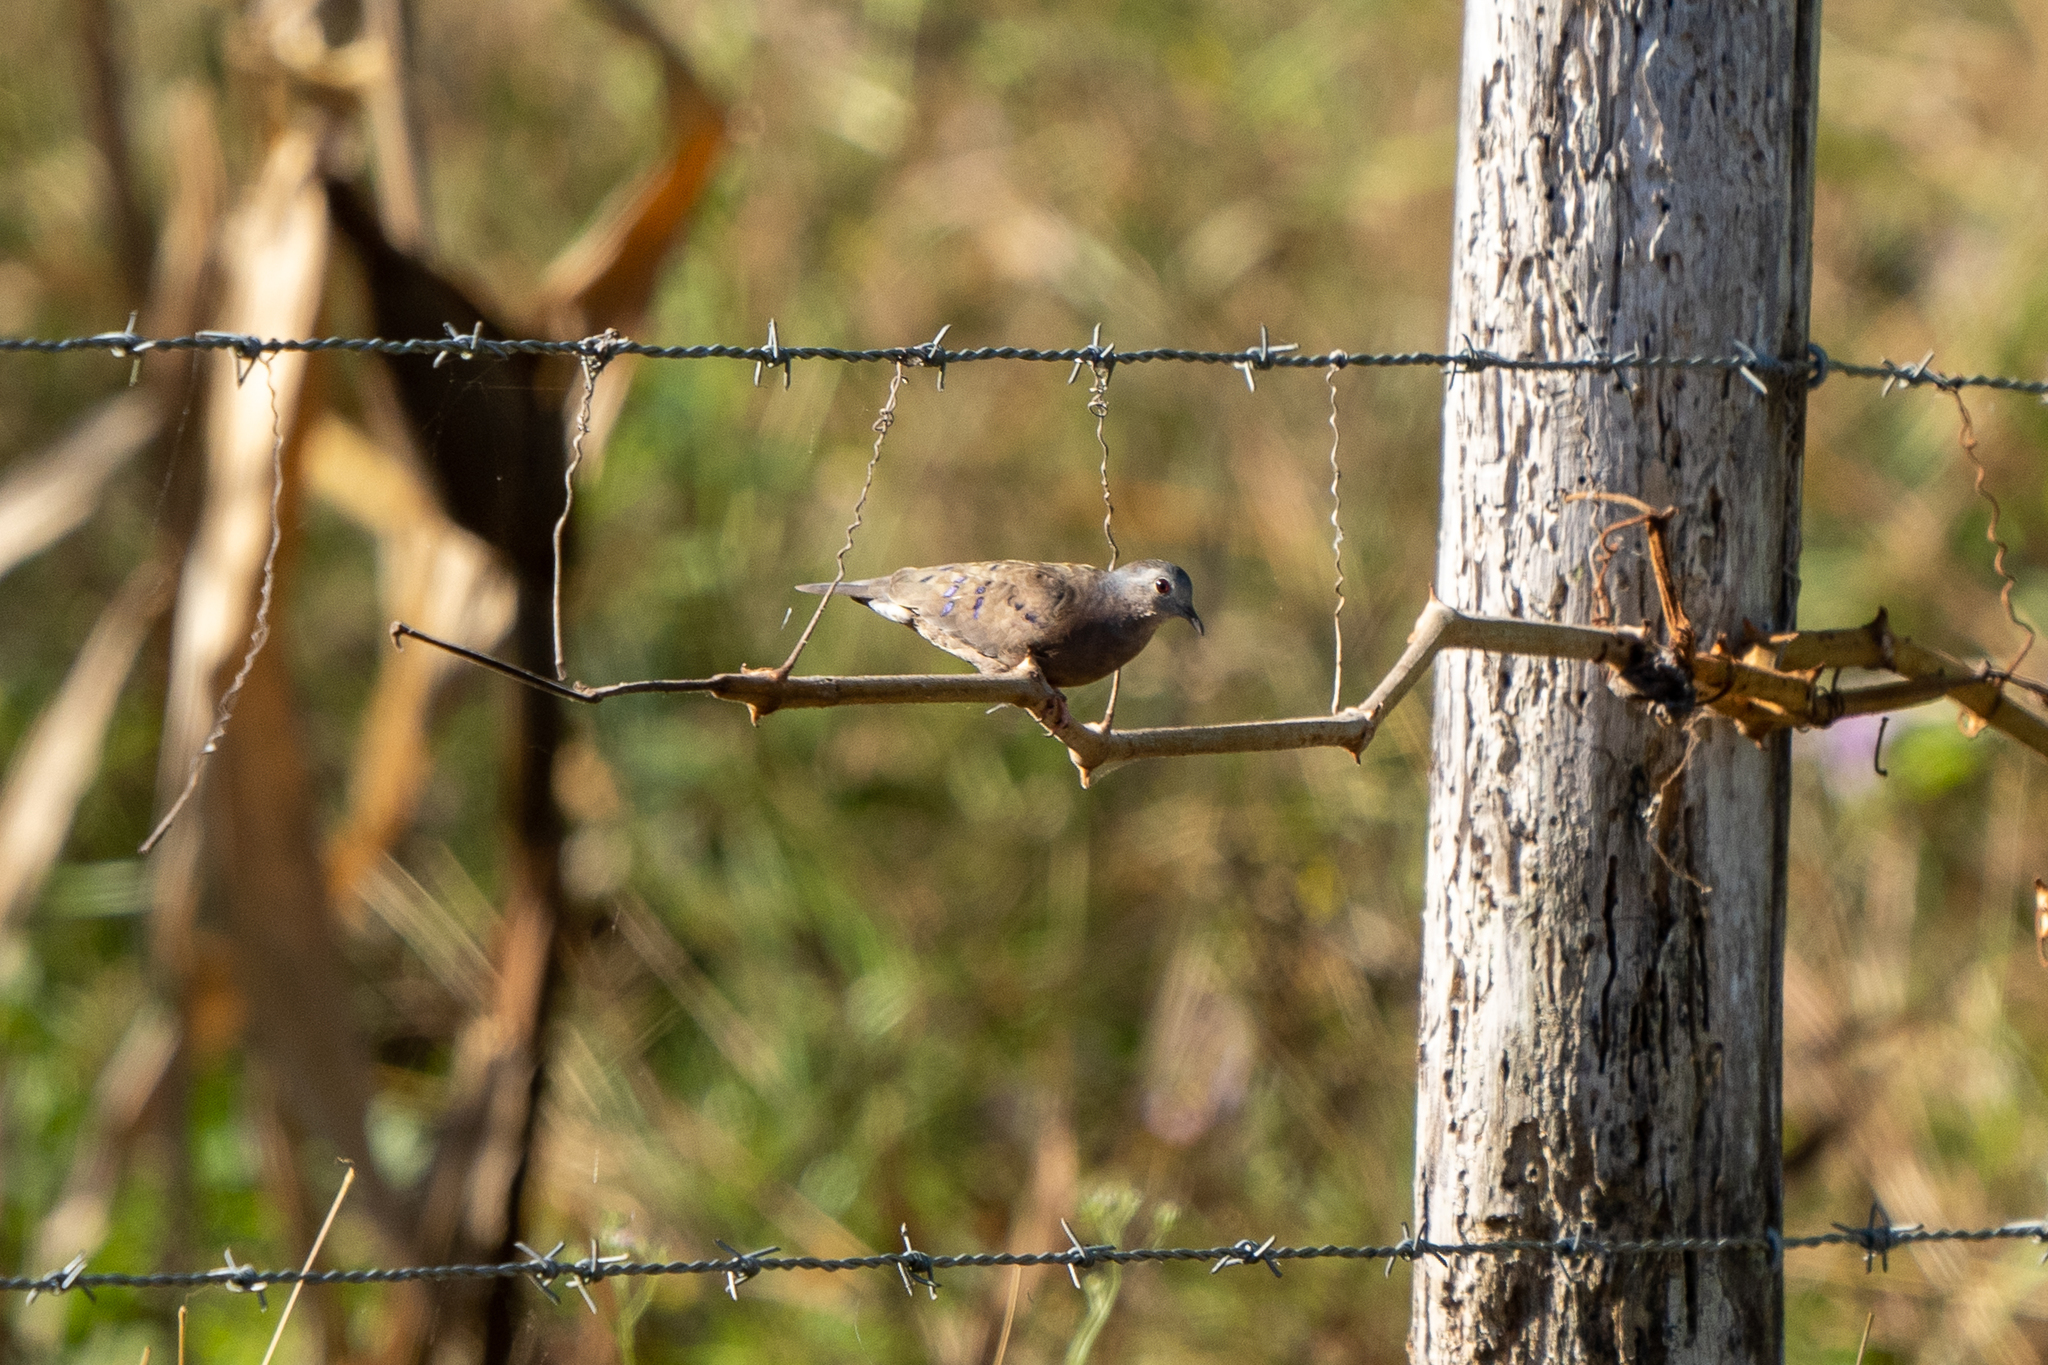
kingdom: Animalia
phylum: Chordata
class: Aves
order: Columbiformes
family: Columbidae
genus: Columbina
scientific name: Columbina minuta
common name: Plain-breasted ground dove
